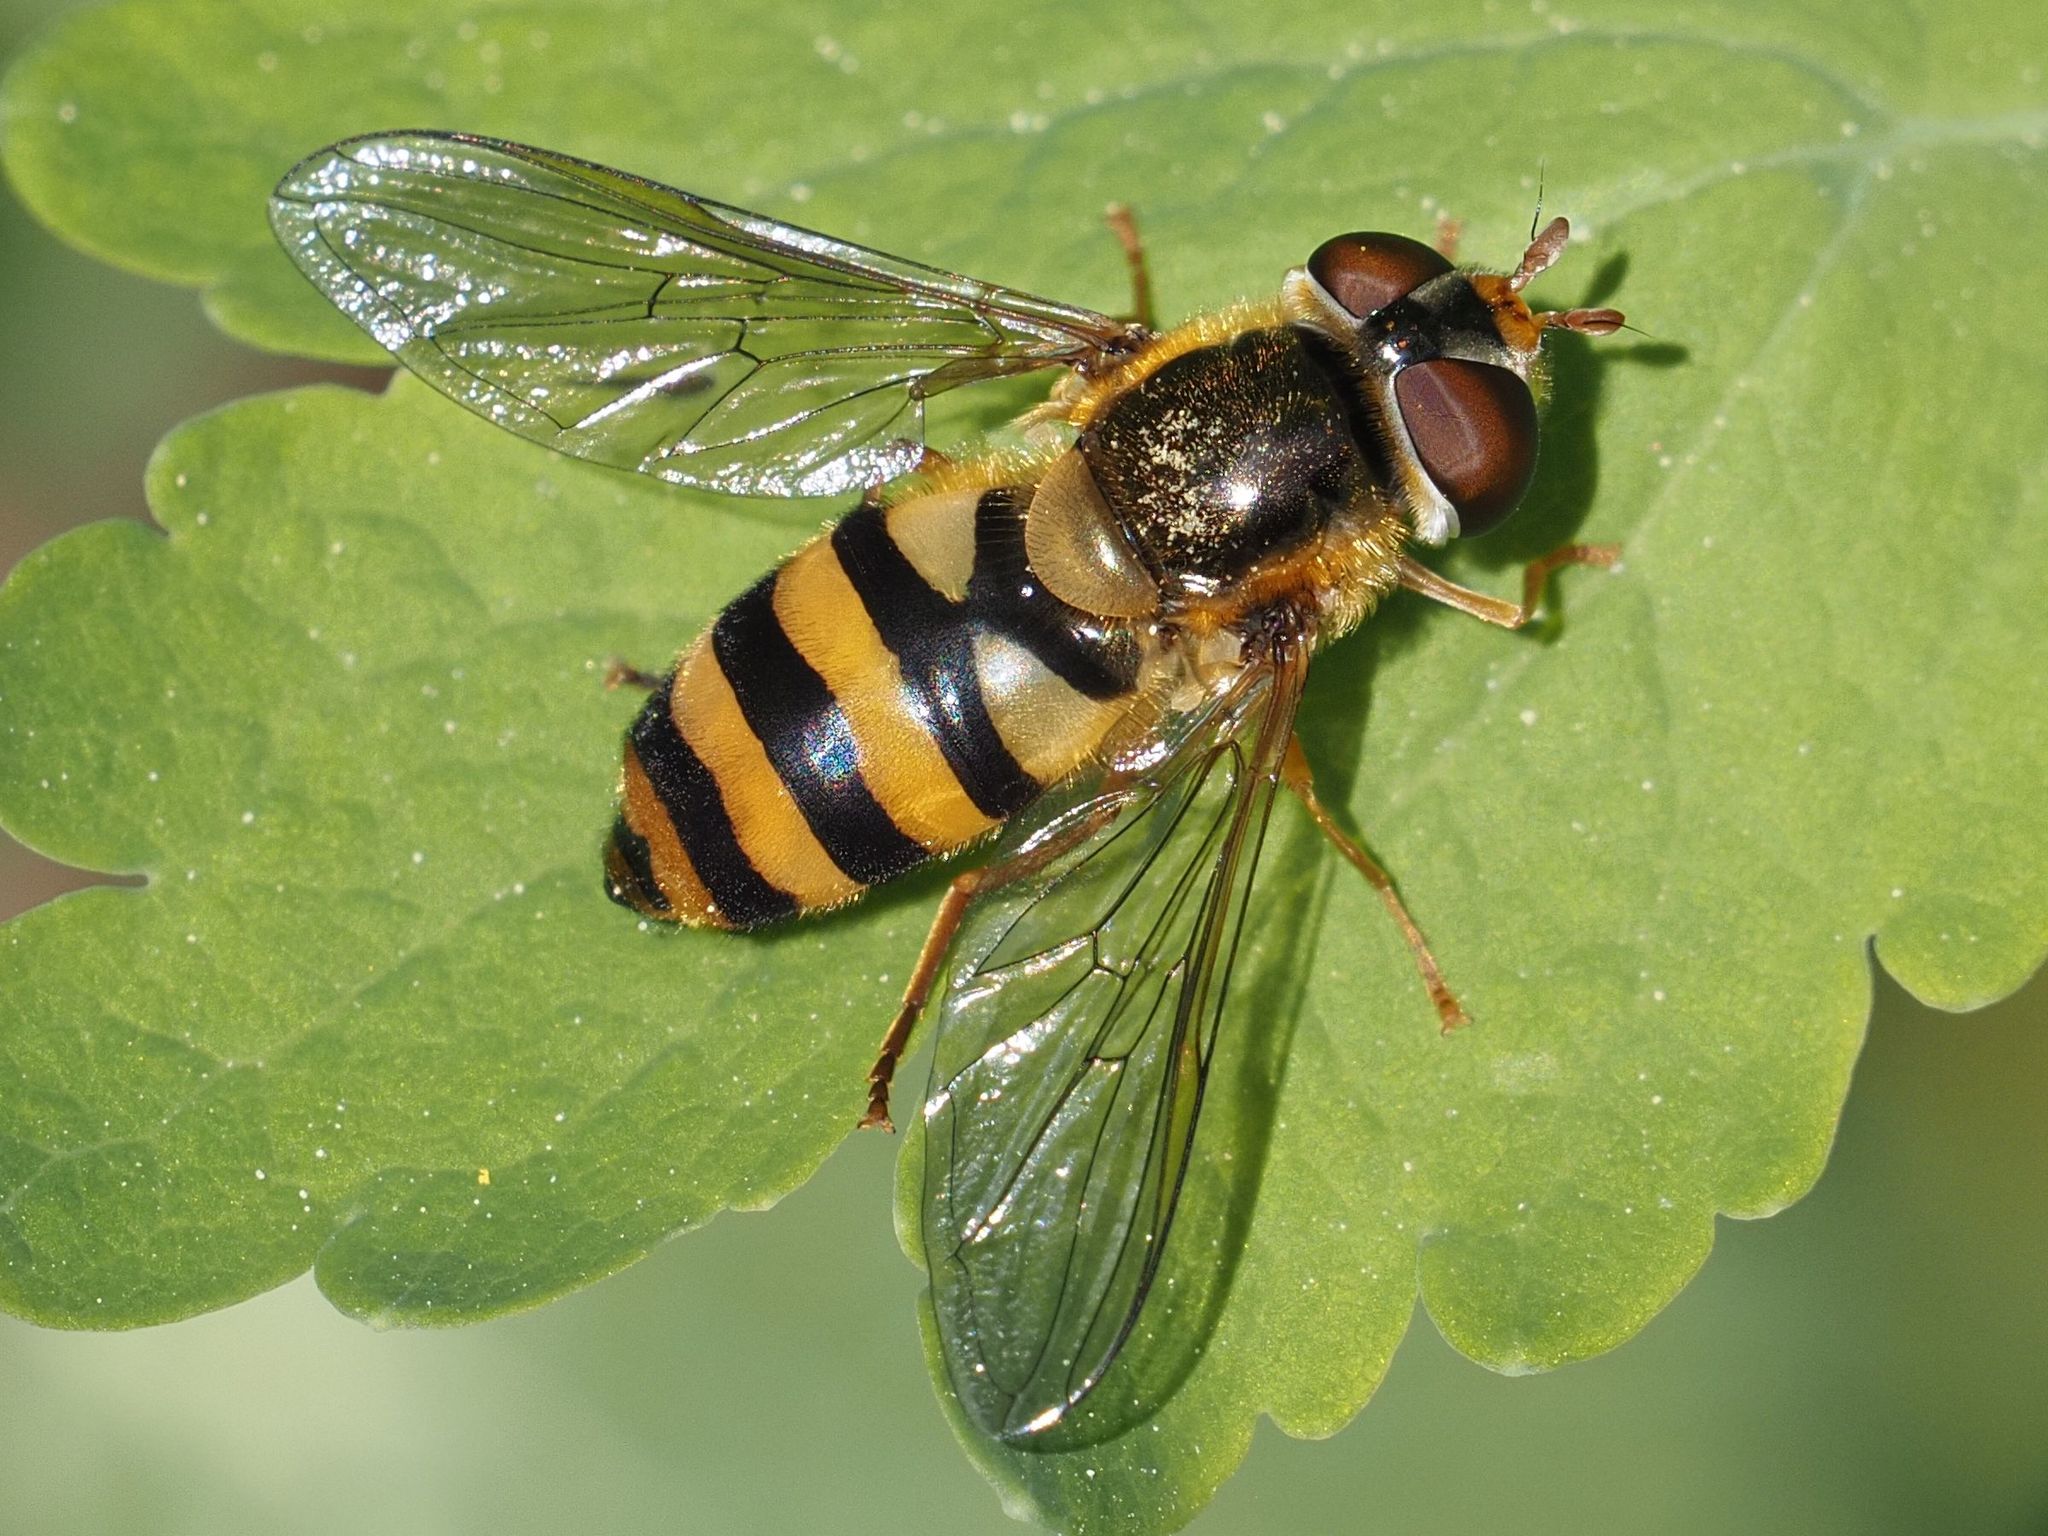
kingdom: Animalia
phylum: Arthropoda
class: Insecta
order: Diptera
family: Syrphidae
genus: Epistrophe
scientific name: Epistrophe nitidicollis
